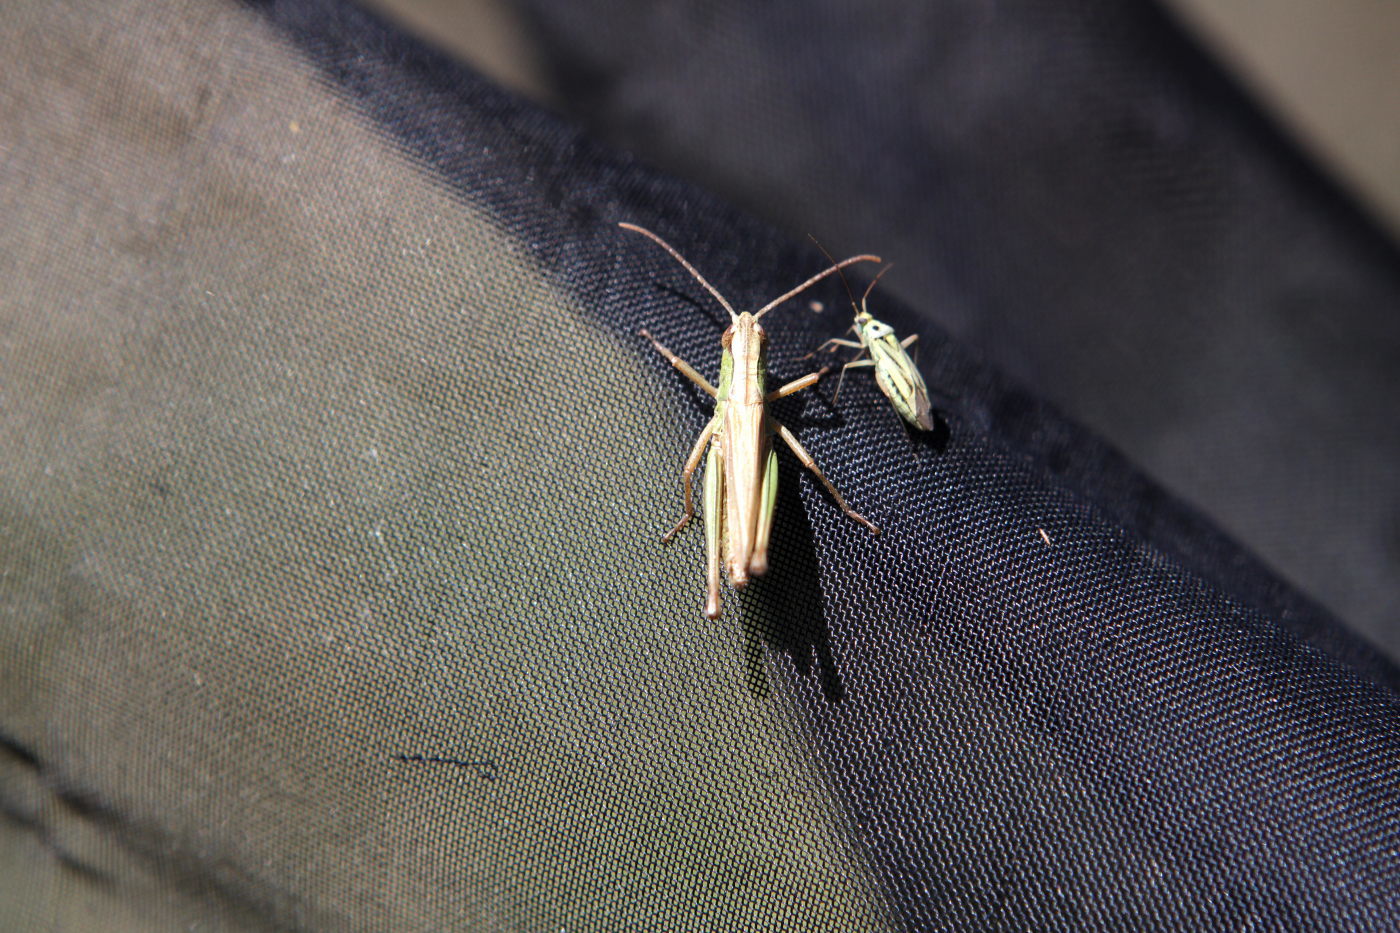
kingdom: Animalia
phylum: Arthropoda
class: Insecta
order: Orthoptera
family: Acrididae
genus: Pseudochorthippus
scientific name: Pseudochorthippus parallelus
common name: Meadow grasshopper
